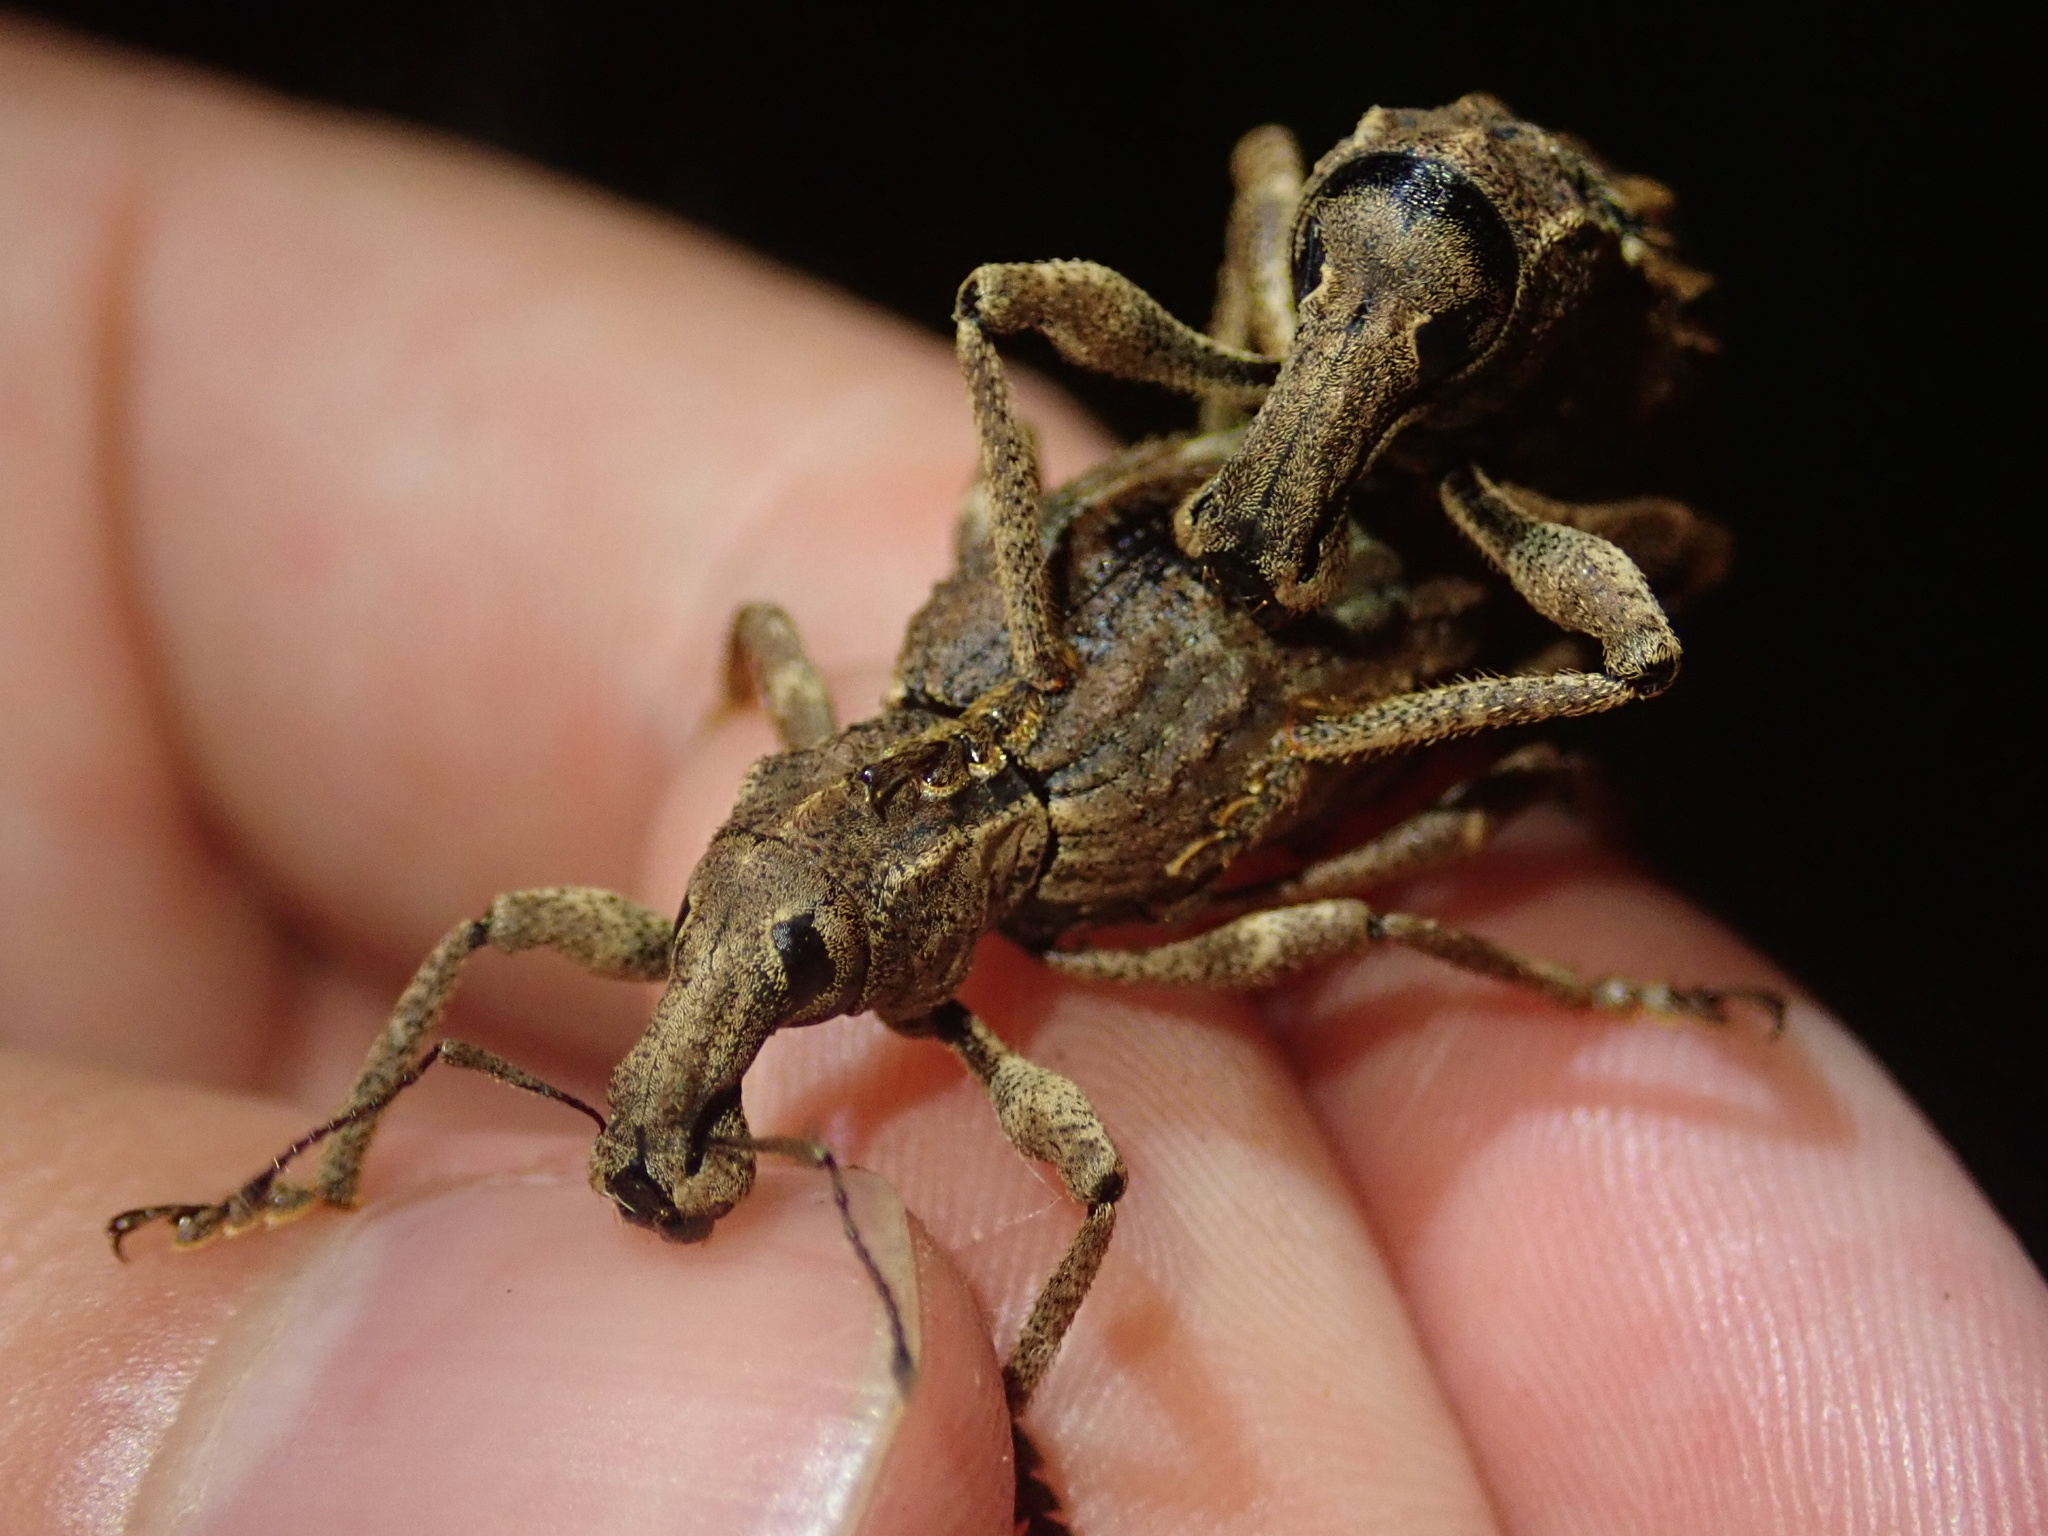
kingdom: Animalia
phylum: Arthropoda
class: Insecta
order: Coleoptera
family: Curculionidae
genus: Anagotus
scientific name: Anagotus fairburni
